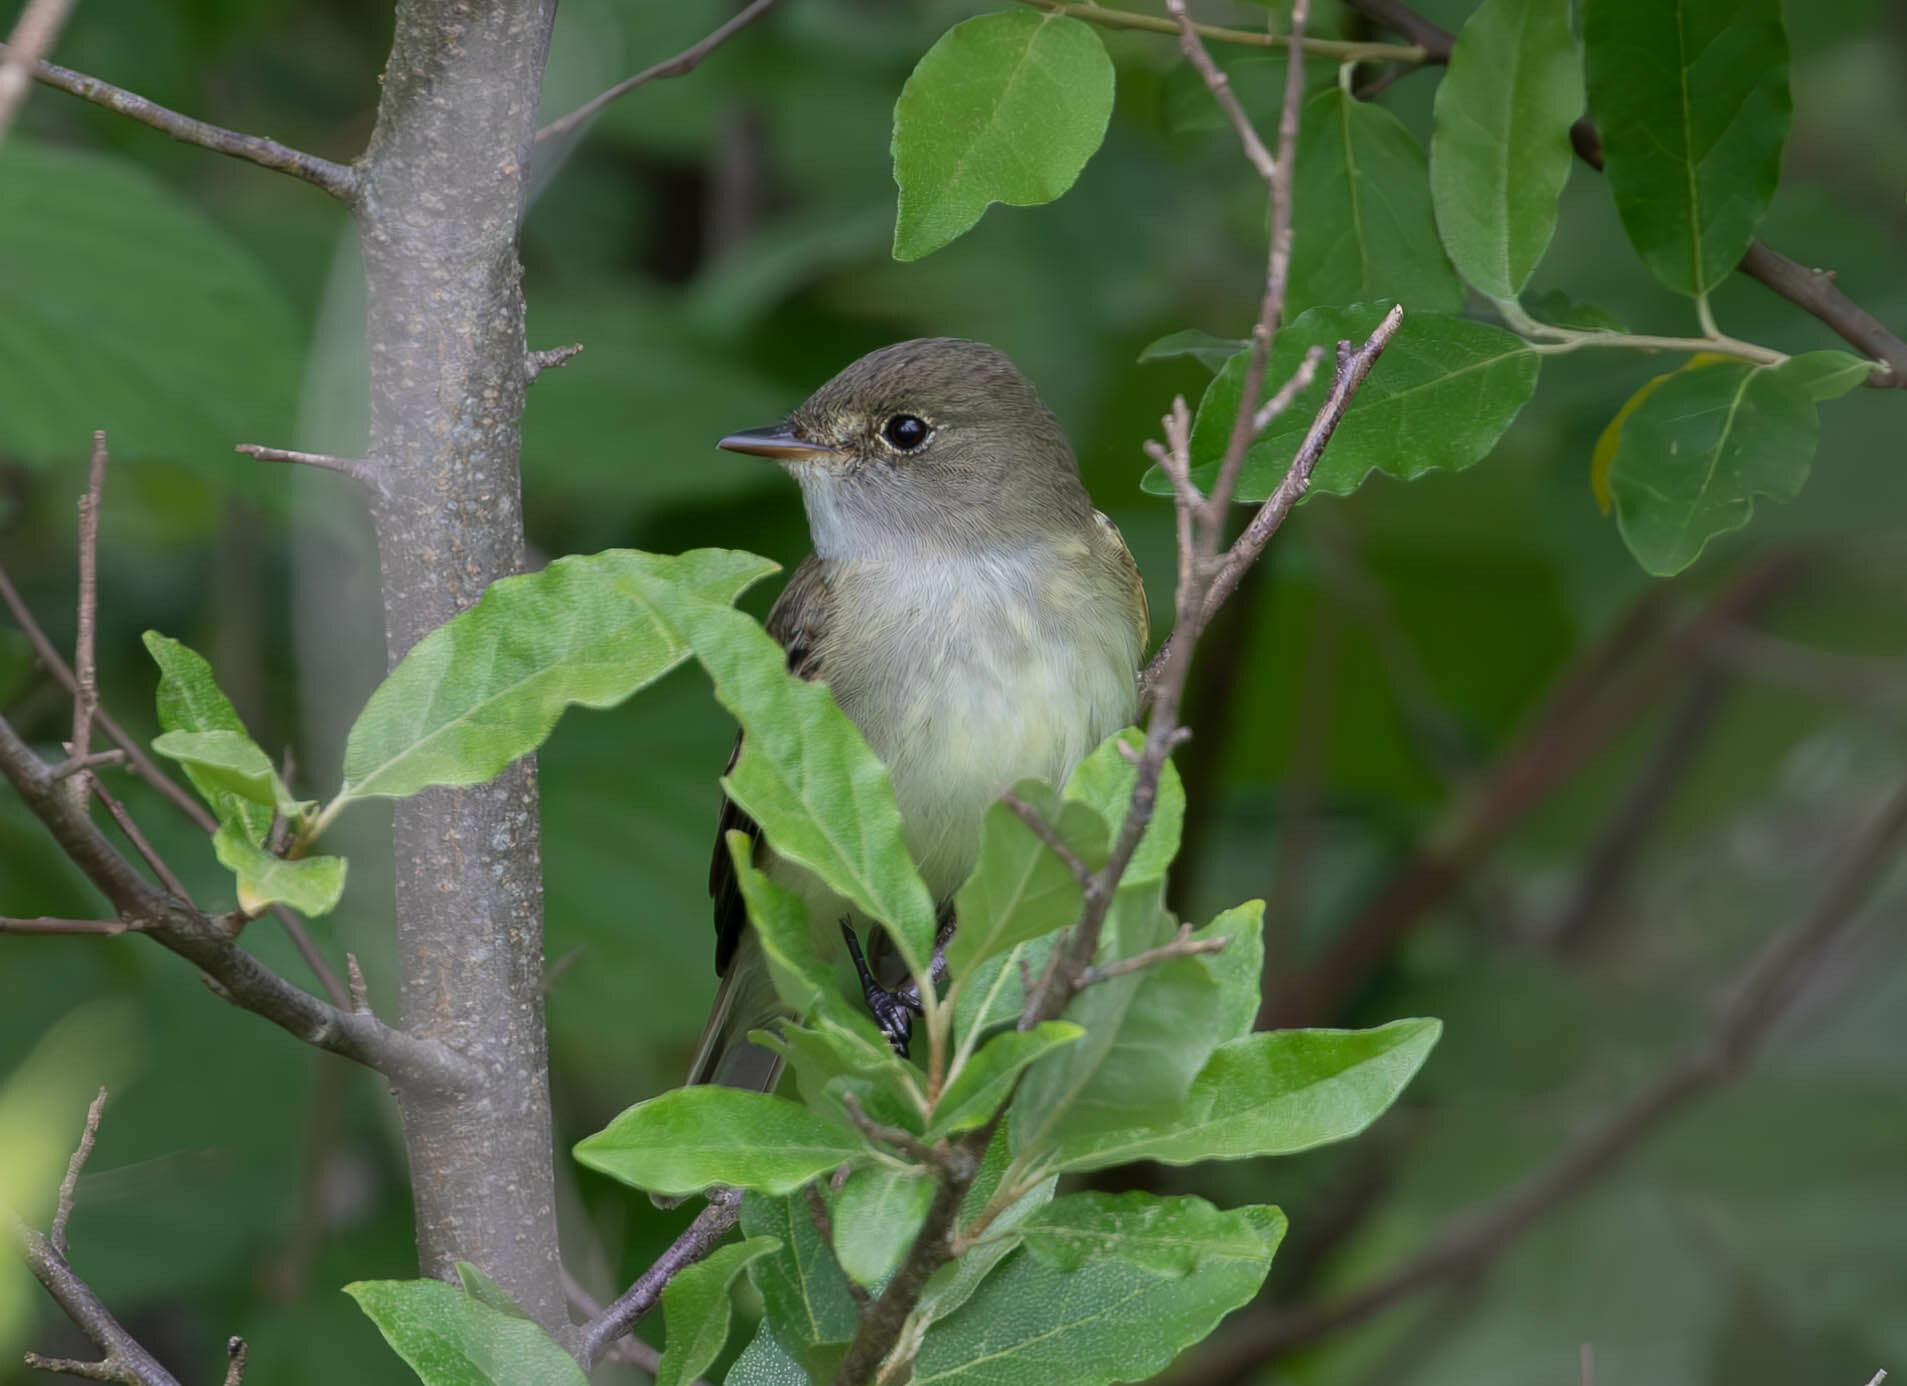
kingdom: Animalia
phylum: Chordata
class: Aves
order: Passeriformes
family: Tyrannidae
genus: Empidonax
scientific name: Empidonax alnorum
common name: Alder flycatcher
